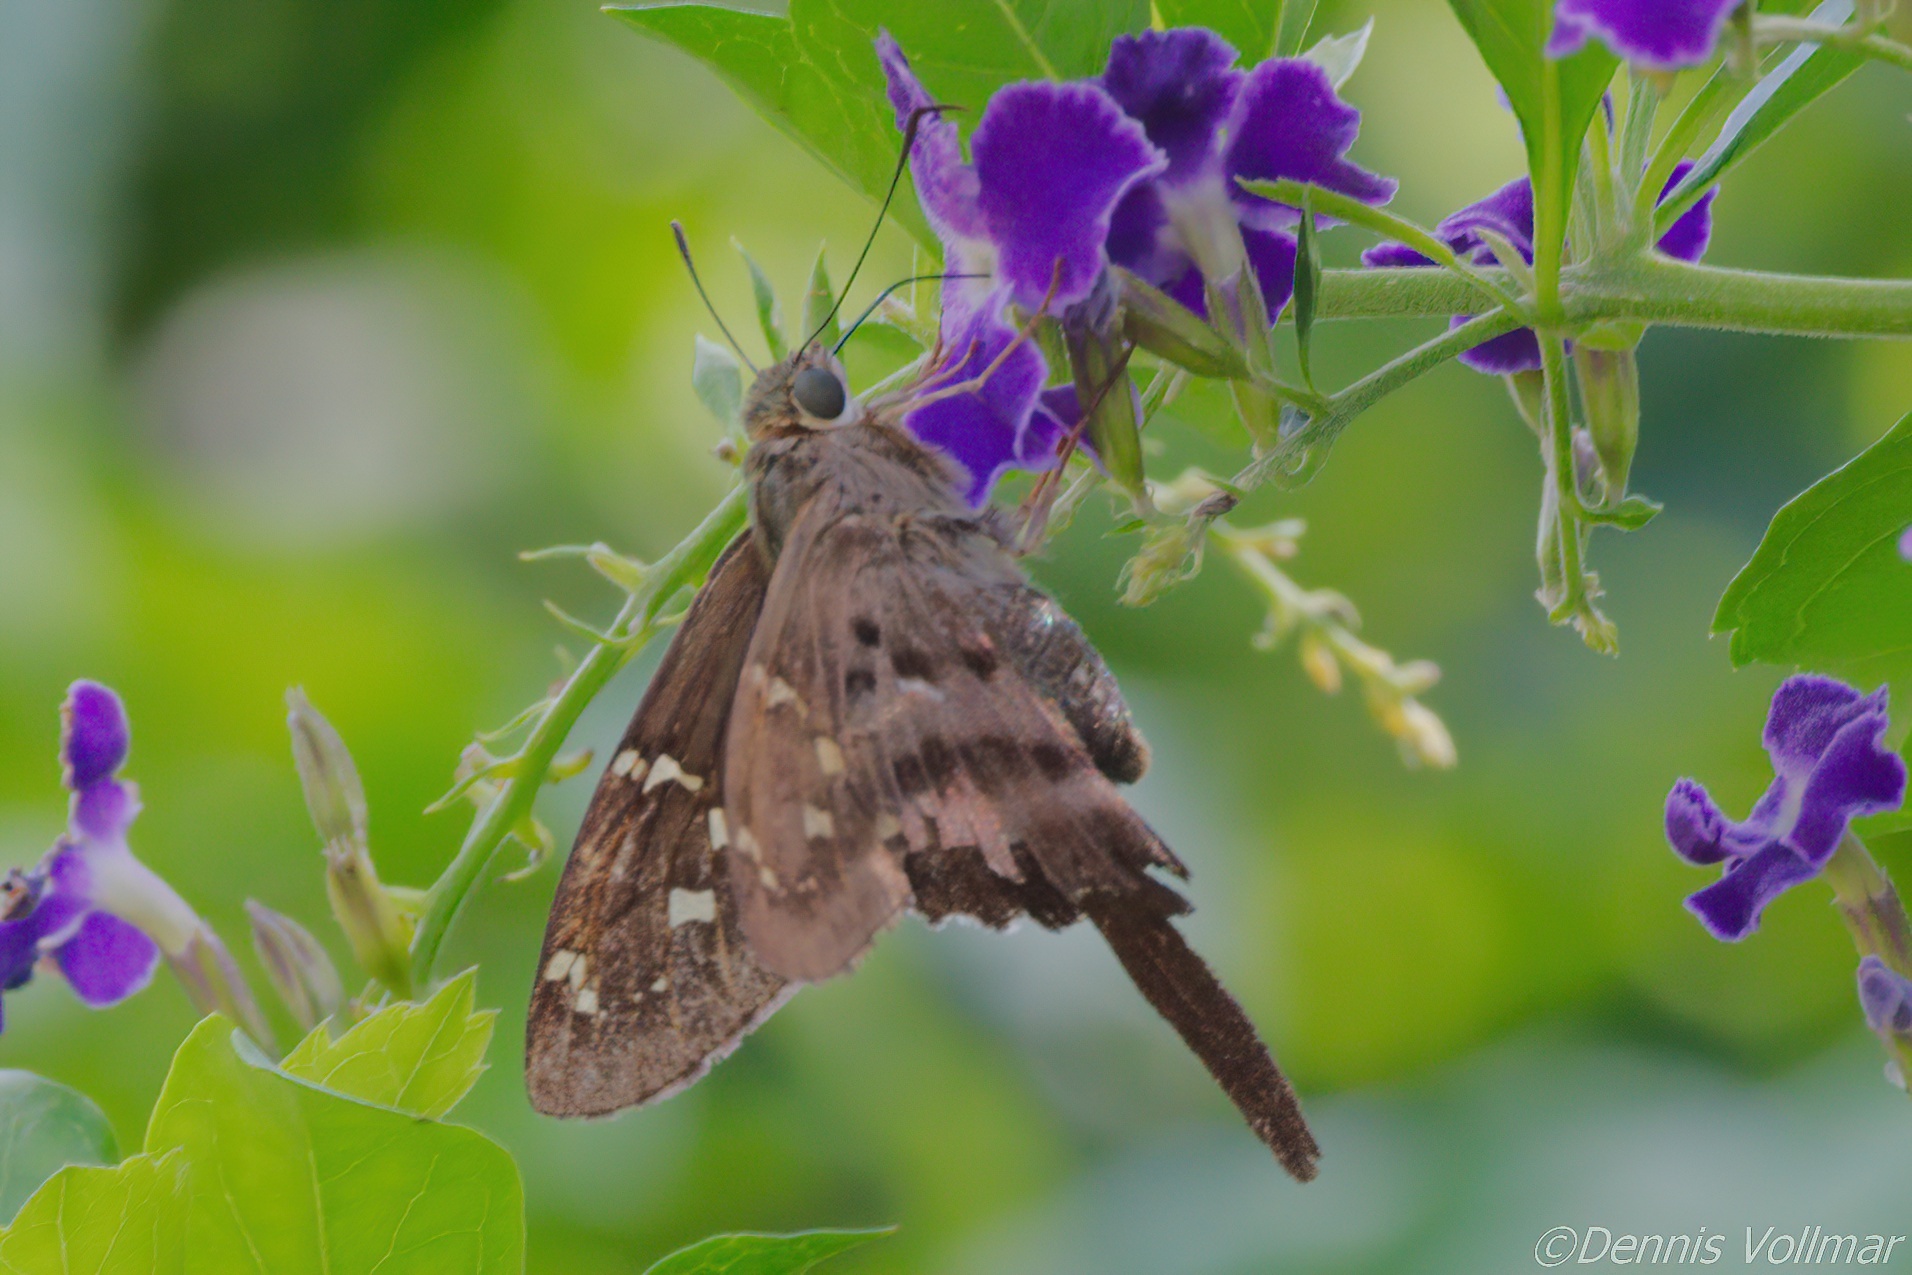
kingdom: Animalia
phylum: Arthropoda
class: Insecta
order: Lepidoptera
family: Hesperiidae
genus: Thorybes
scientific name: Thorybes
